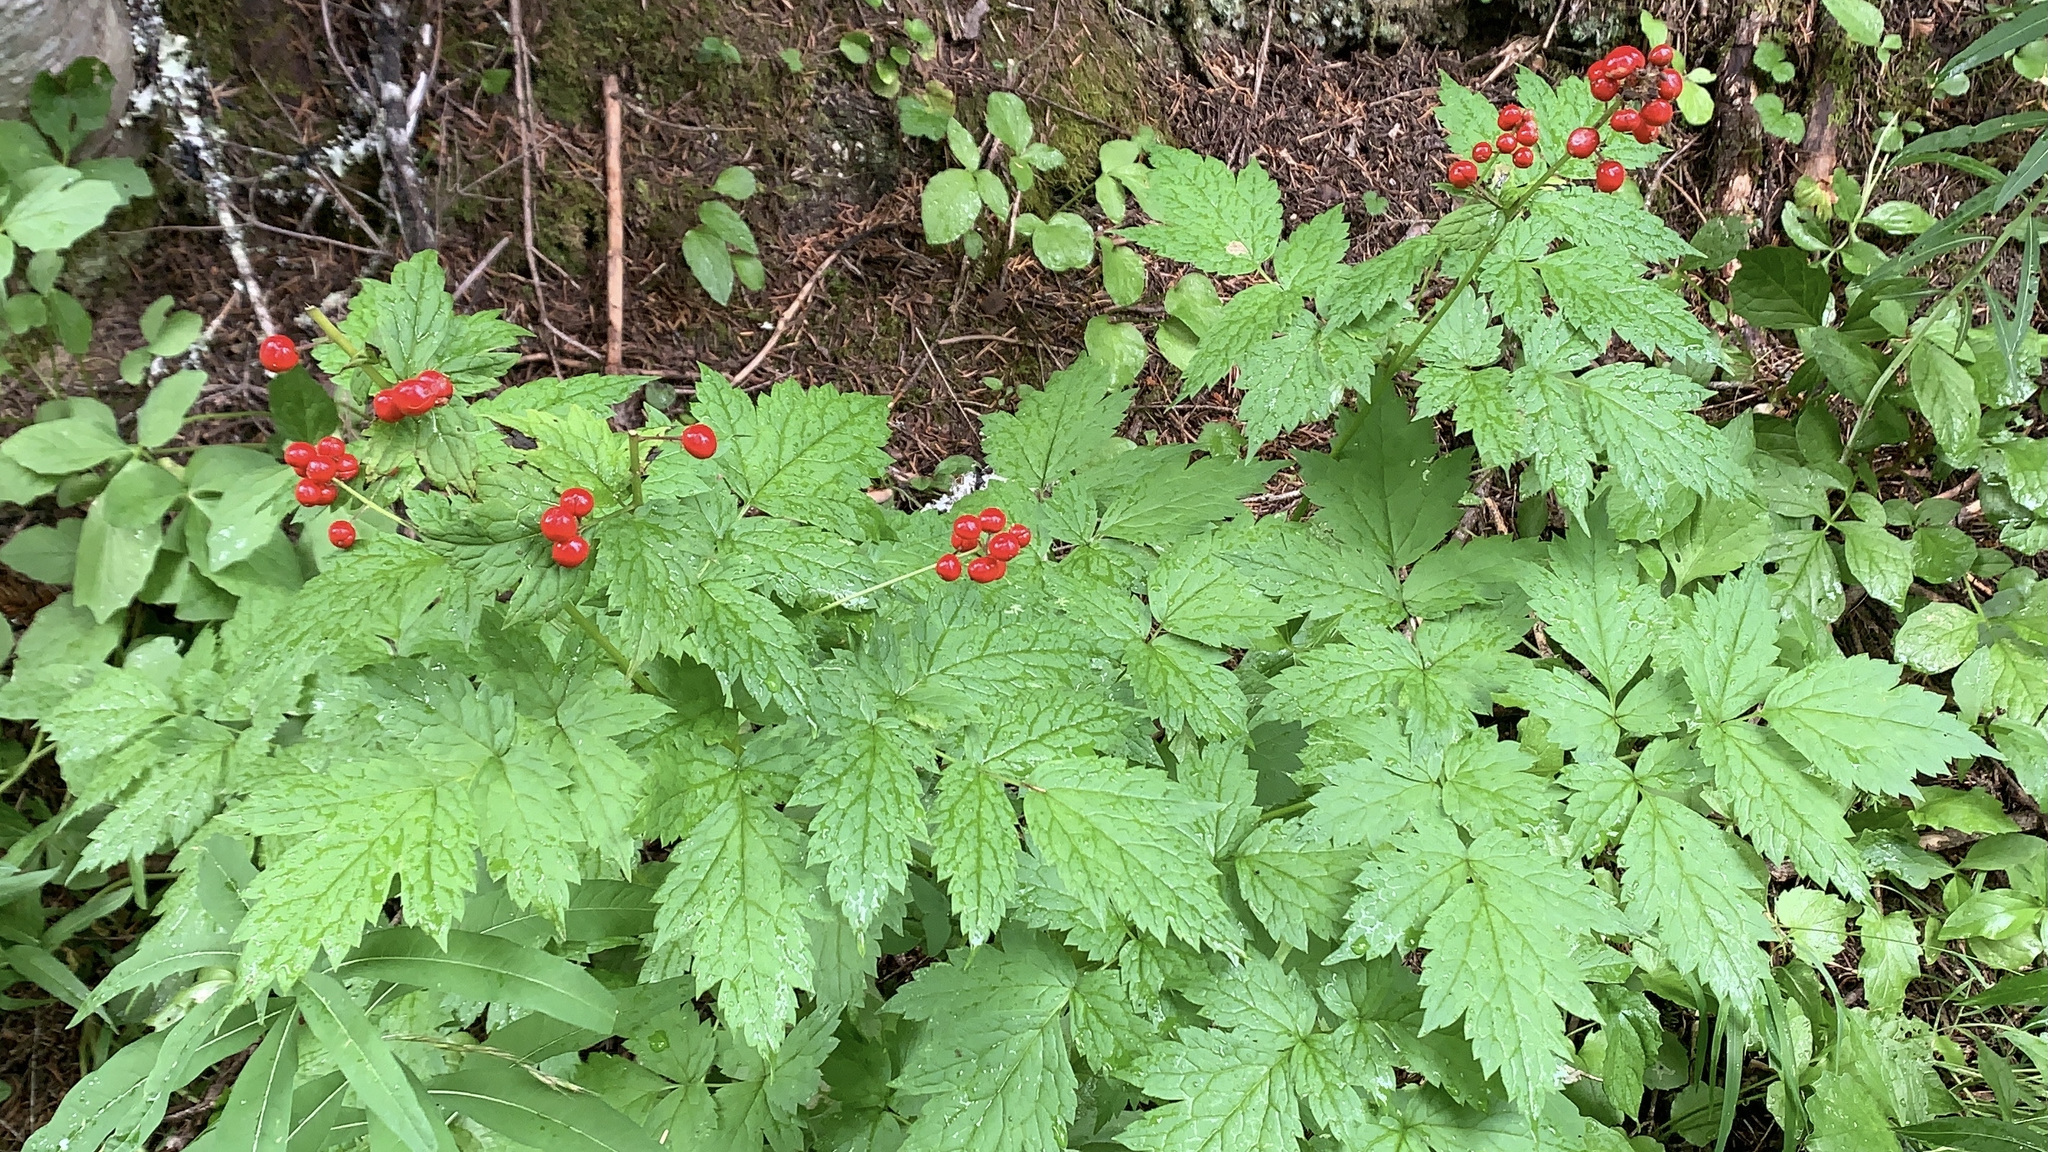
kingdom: Plantae
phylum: Tracheophyta
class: Magnoliopsida
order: Ranunculales
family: Ranunculaceae
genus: Actaea
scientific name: Actaea rubra
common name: Red baneberry
